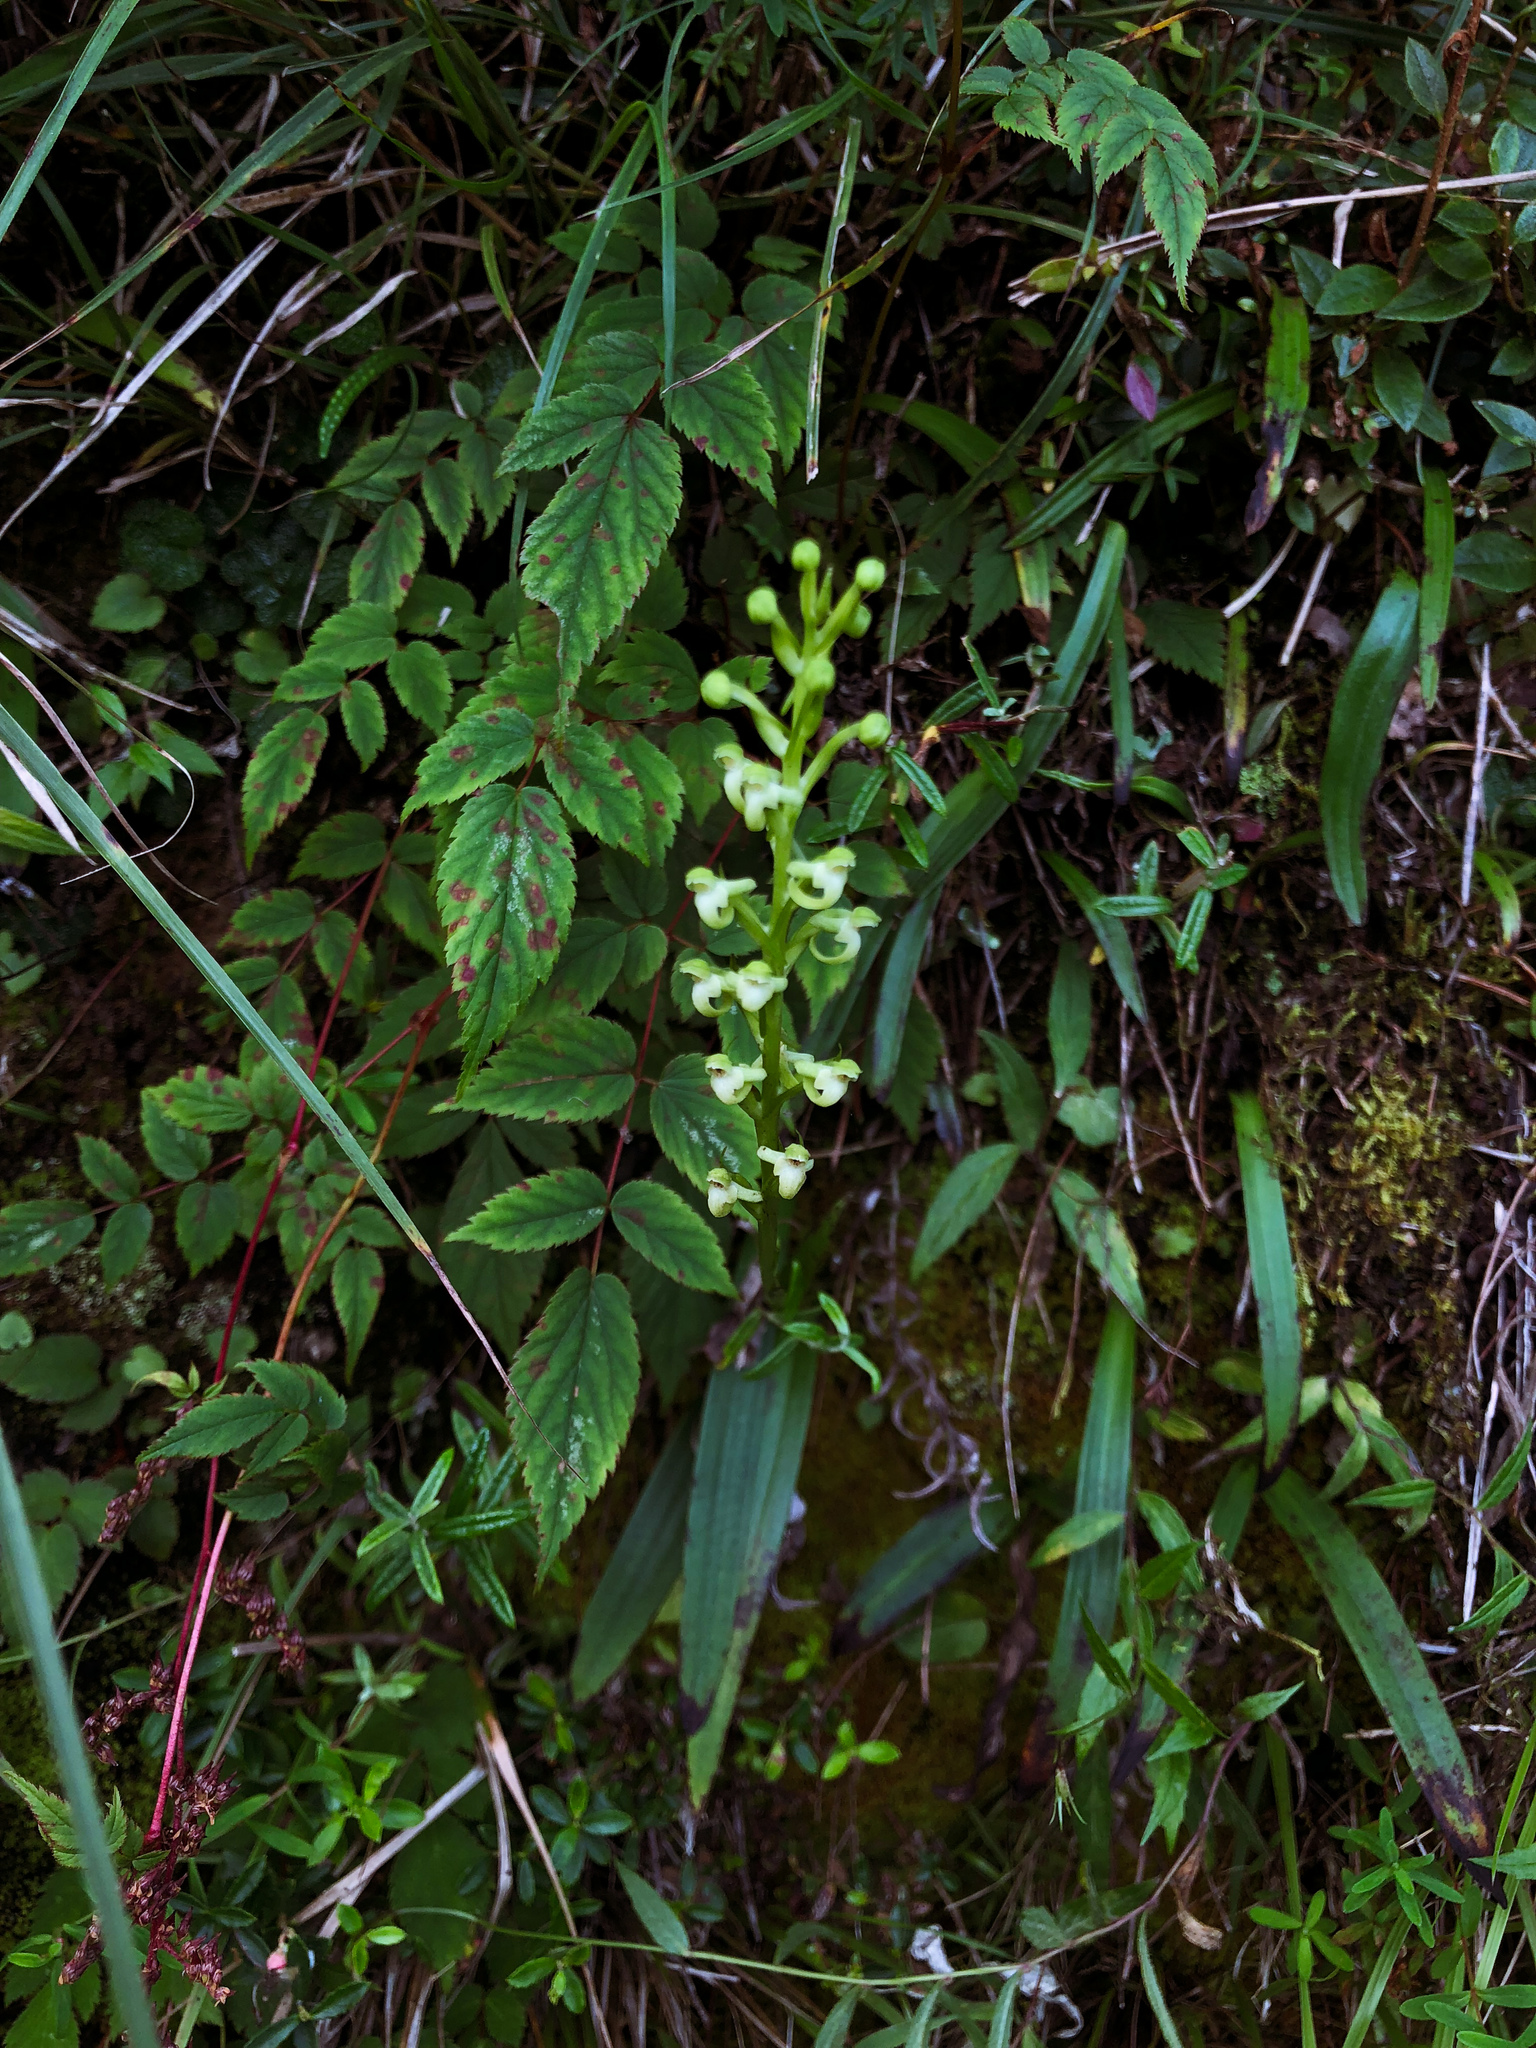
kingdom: Plantae
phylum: Tracheophyta
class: Liliopsida
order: Asparagales
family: Orchidaceae
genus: Platanthera
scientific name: Platanthera devolii
